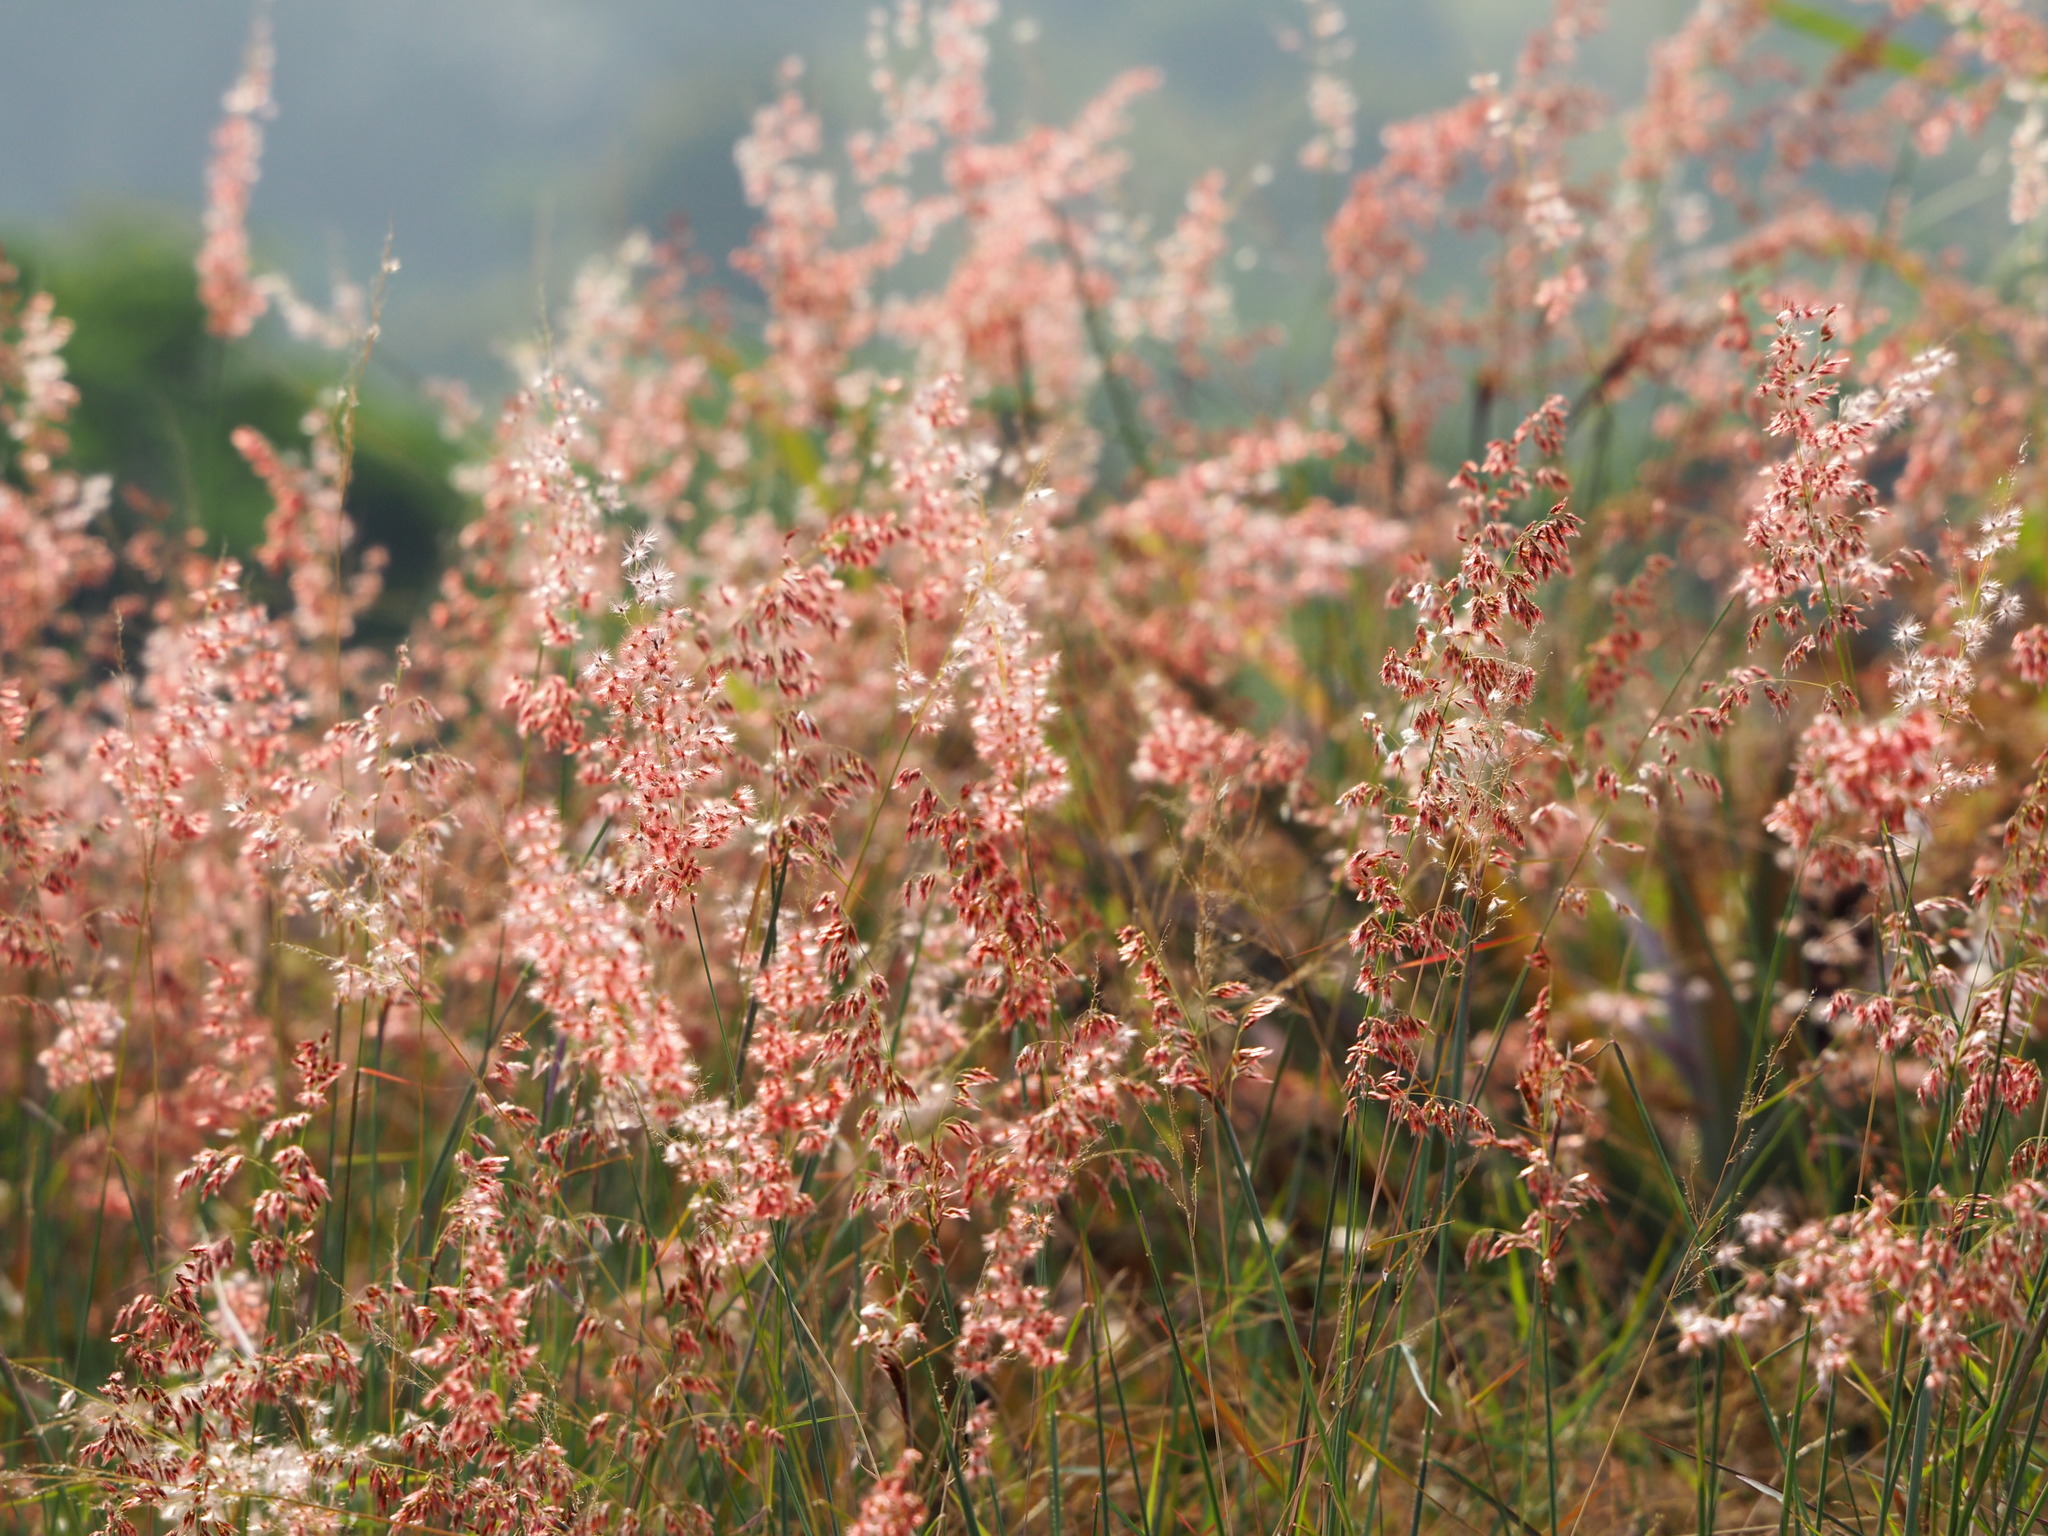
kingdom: Plantae
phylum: Tracheophyta
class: Liliopsida
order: Poales
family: Poaceae
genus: Melinis
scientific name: Melinis repens
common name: Rose natal grass
